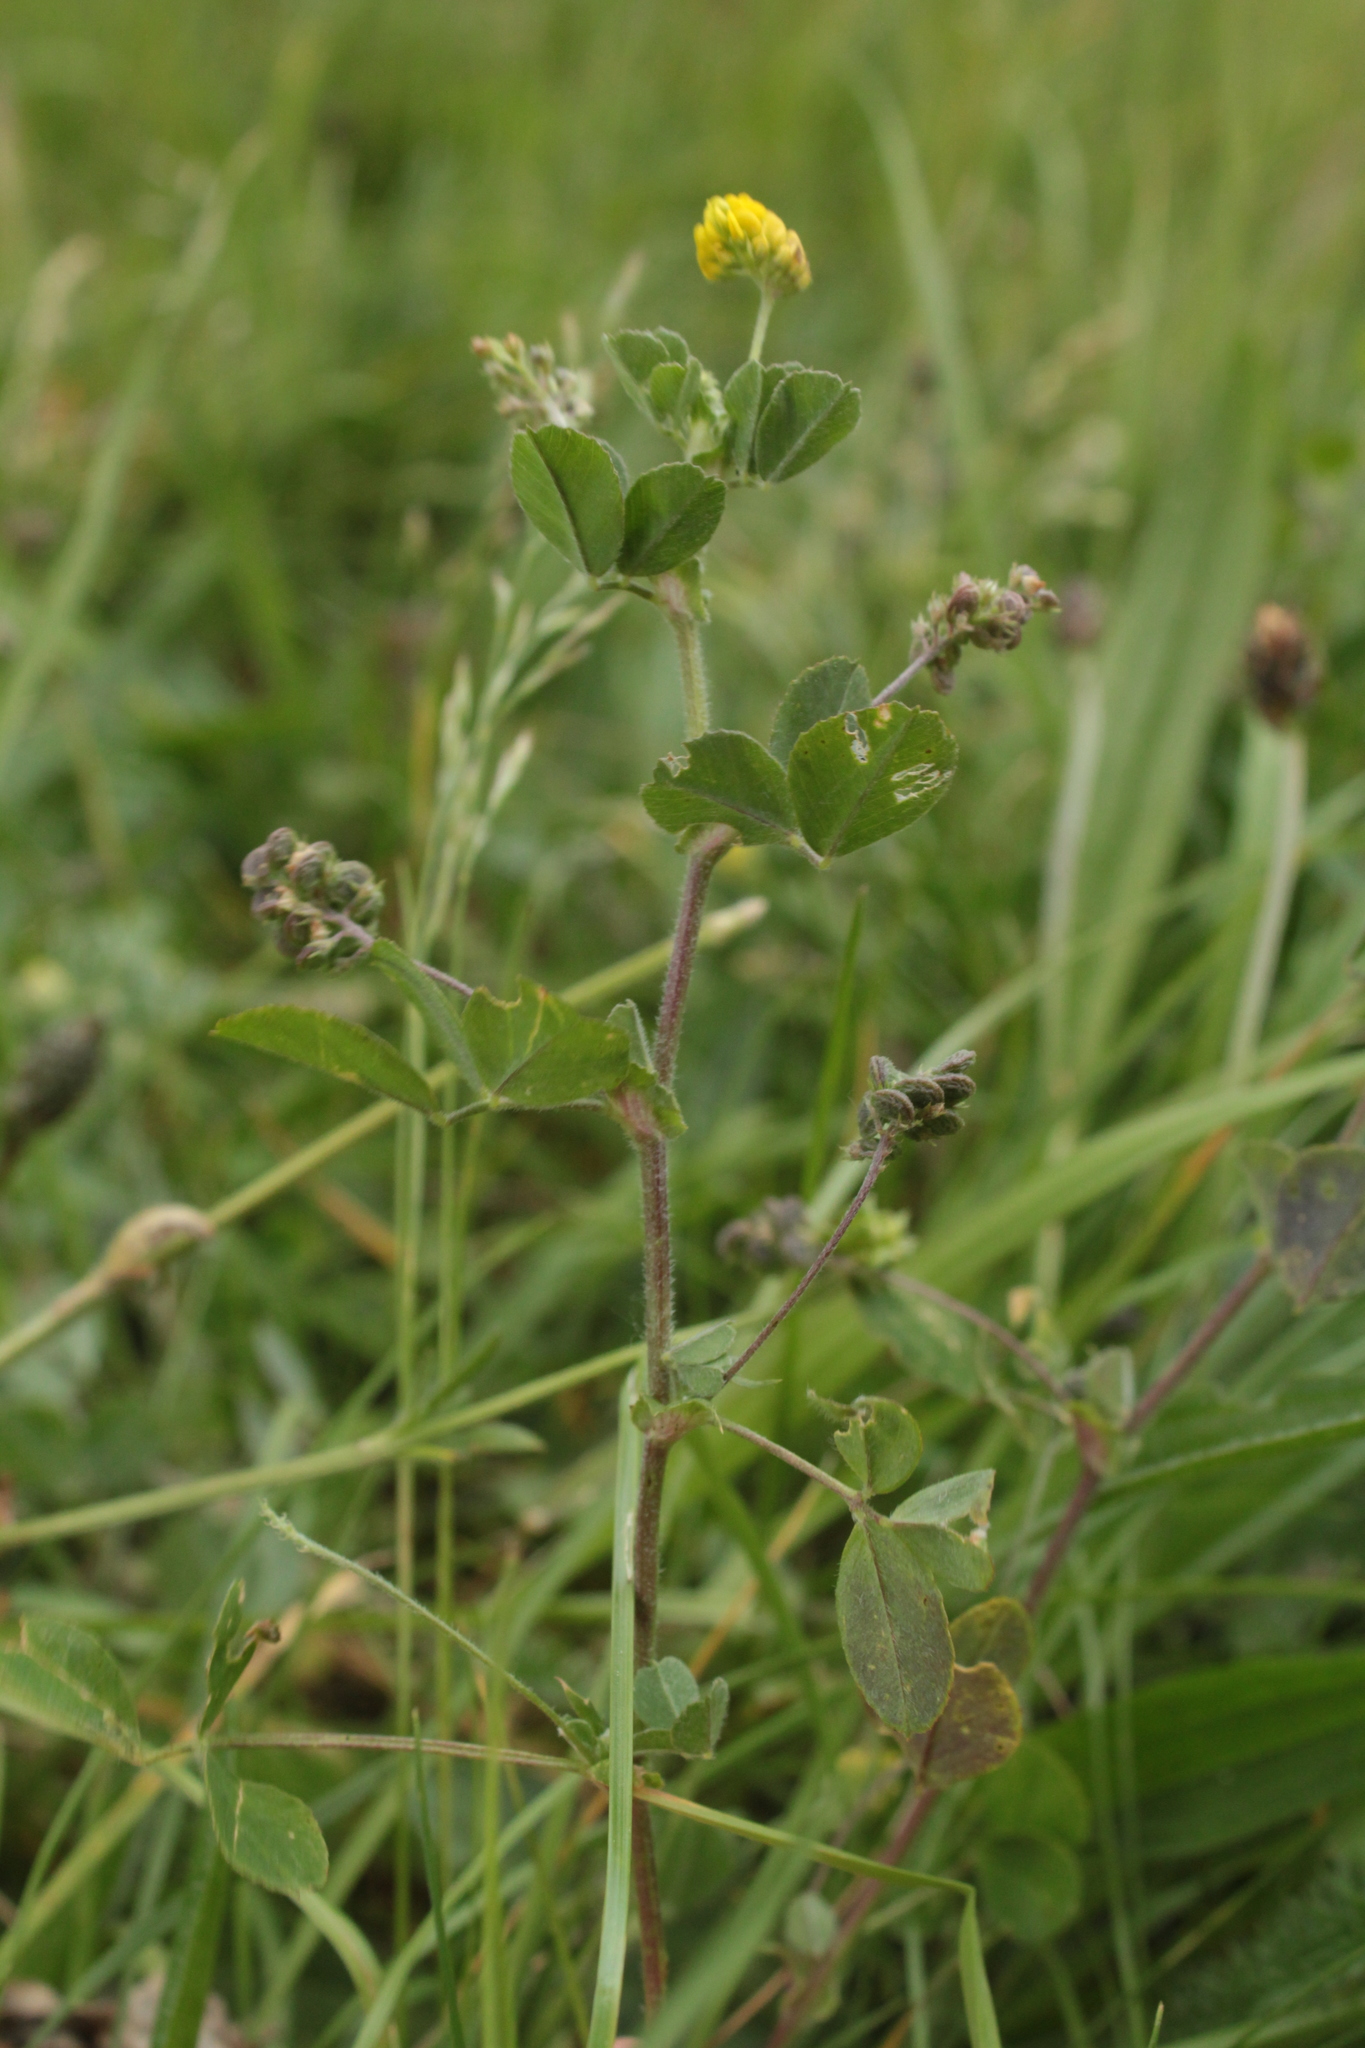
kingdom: Plantae
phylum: Tracheophyta
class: Magnoliopsida
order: Fabales
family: Fabaceae
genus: Medicago
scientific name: Medicago lupulina
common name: Black medick
